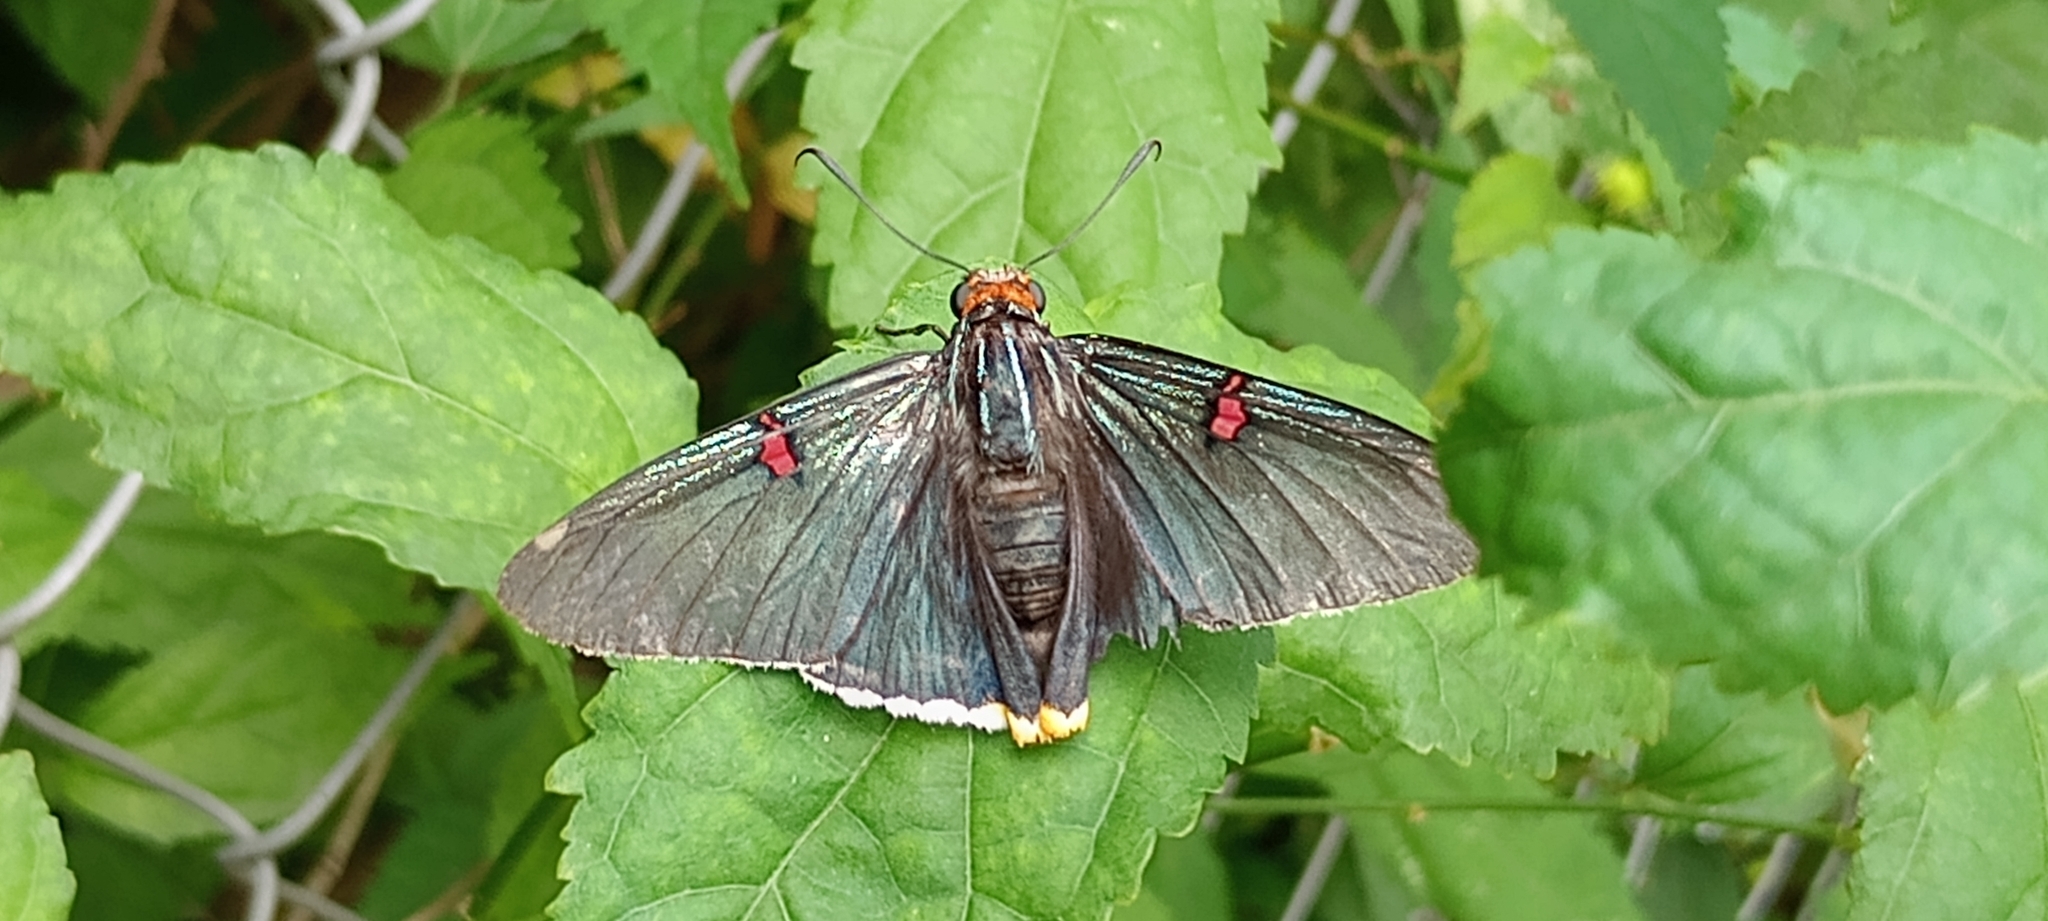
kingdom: Animalia
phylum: Arthropoda
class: Insecta
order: Lepidoptera
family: Hesperiidae
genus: Phocides
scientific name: Phocides polybius
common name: Guava skipper
